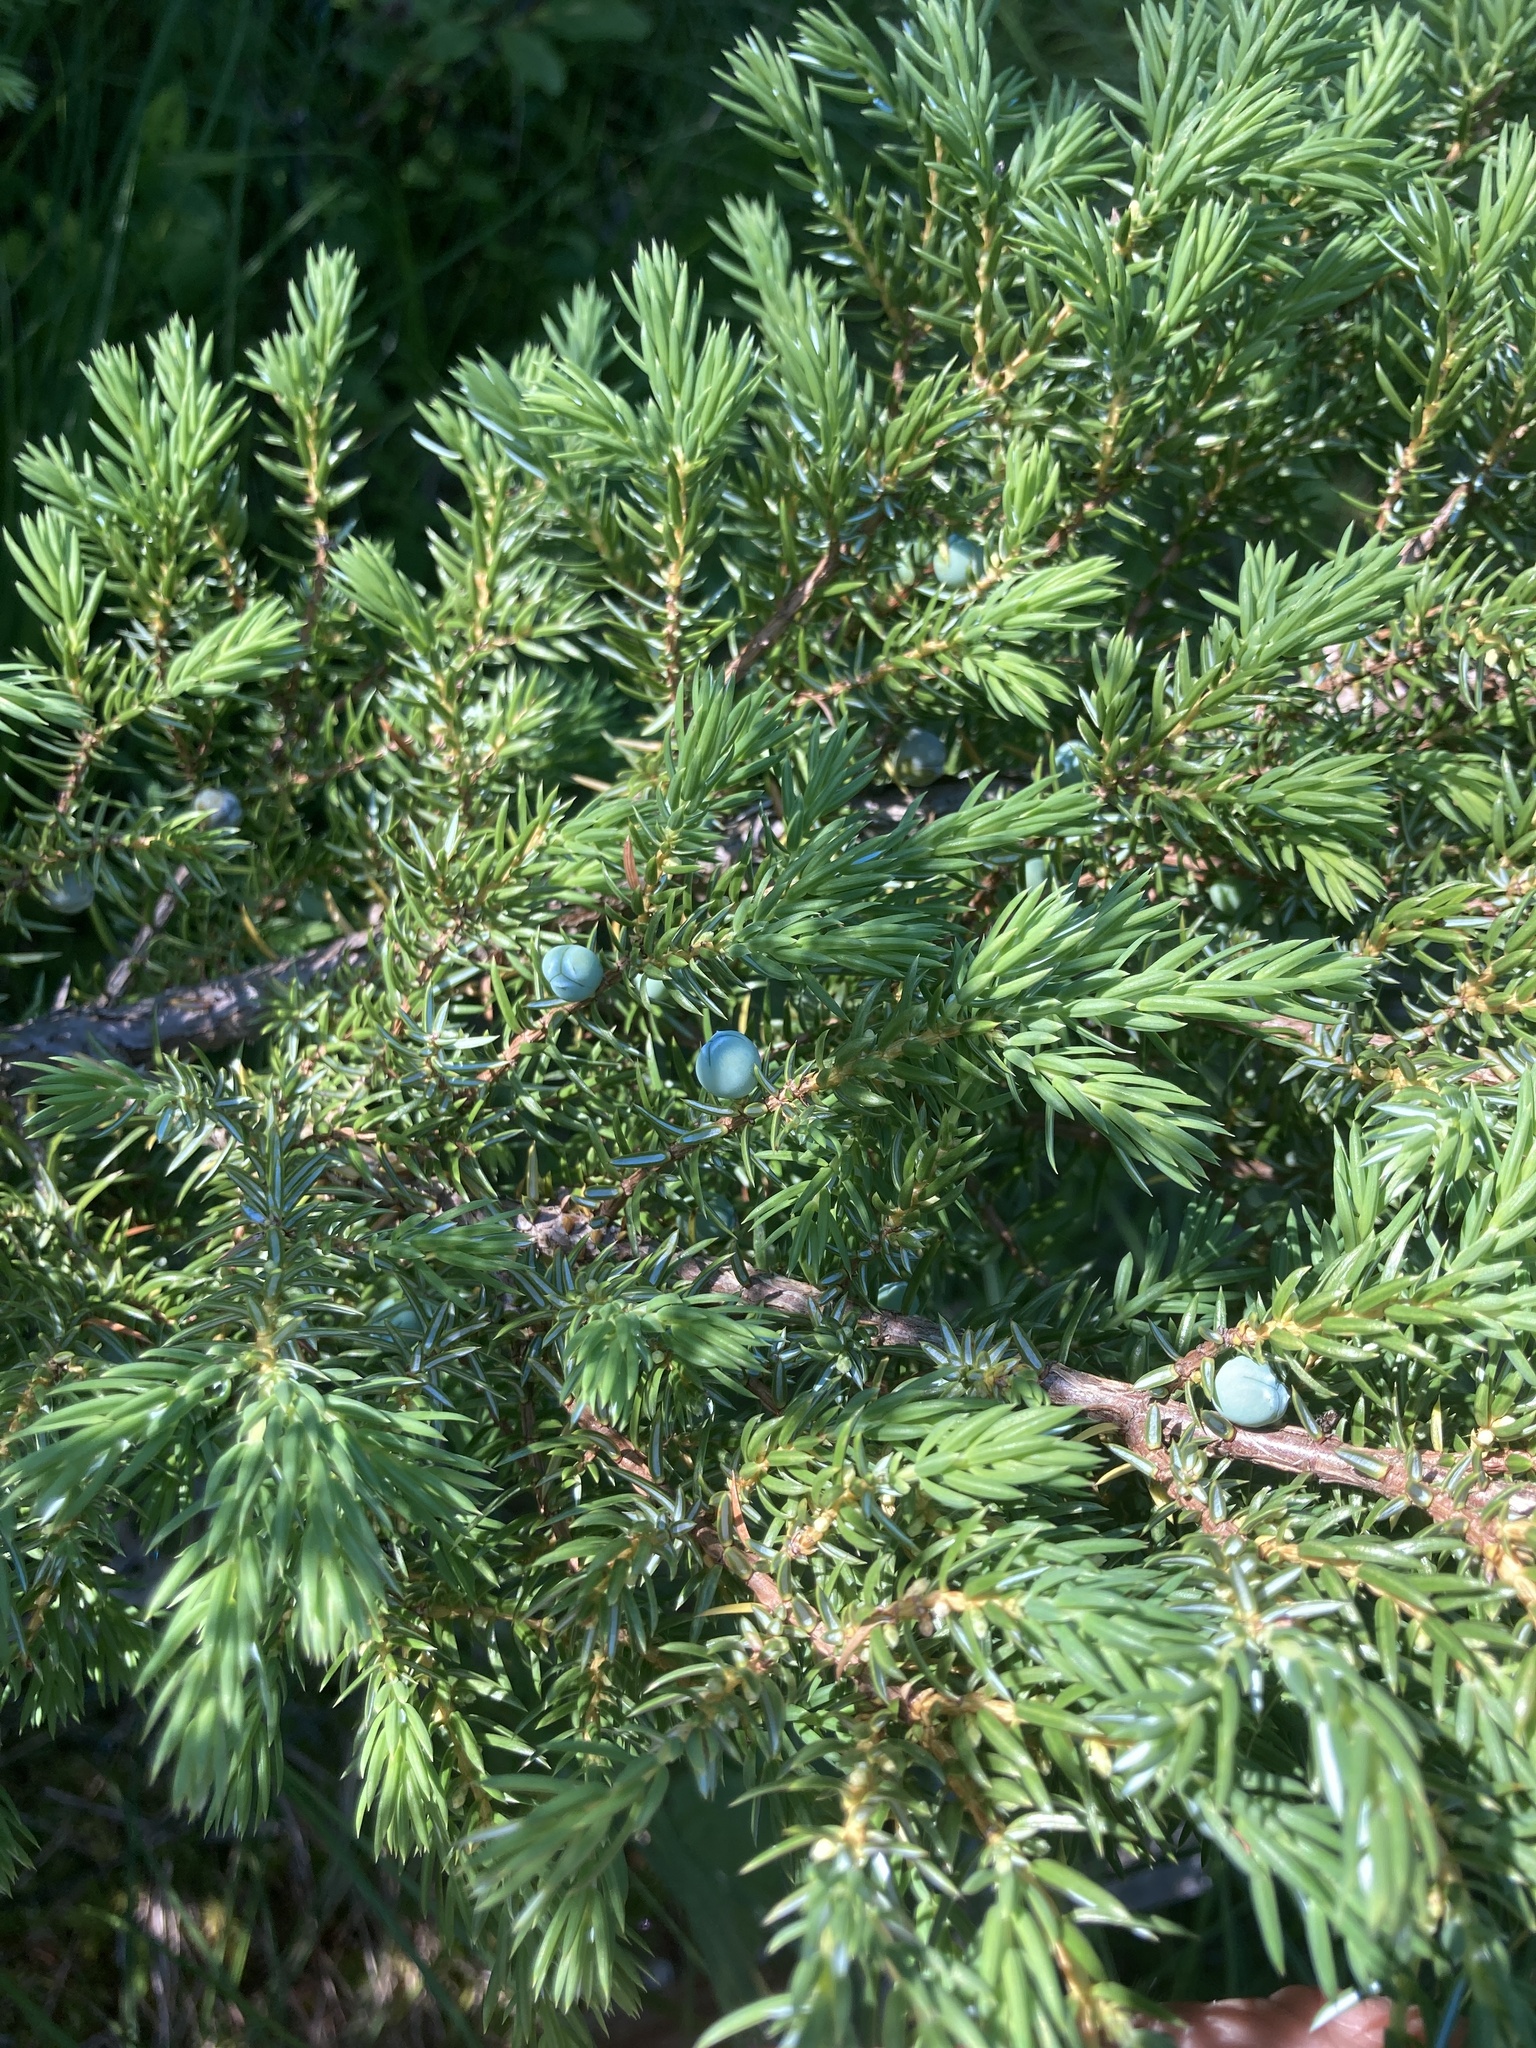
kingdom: Plantae
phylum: Tracheophyta
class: Pinopsida
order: Pinales
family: Cupressaceae
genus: Juniperus
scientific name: Juniperus communis
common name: Common juniper
